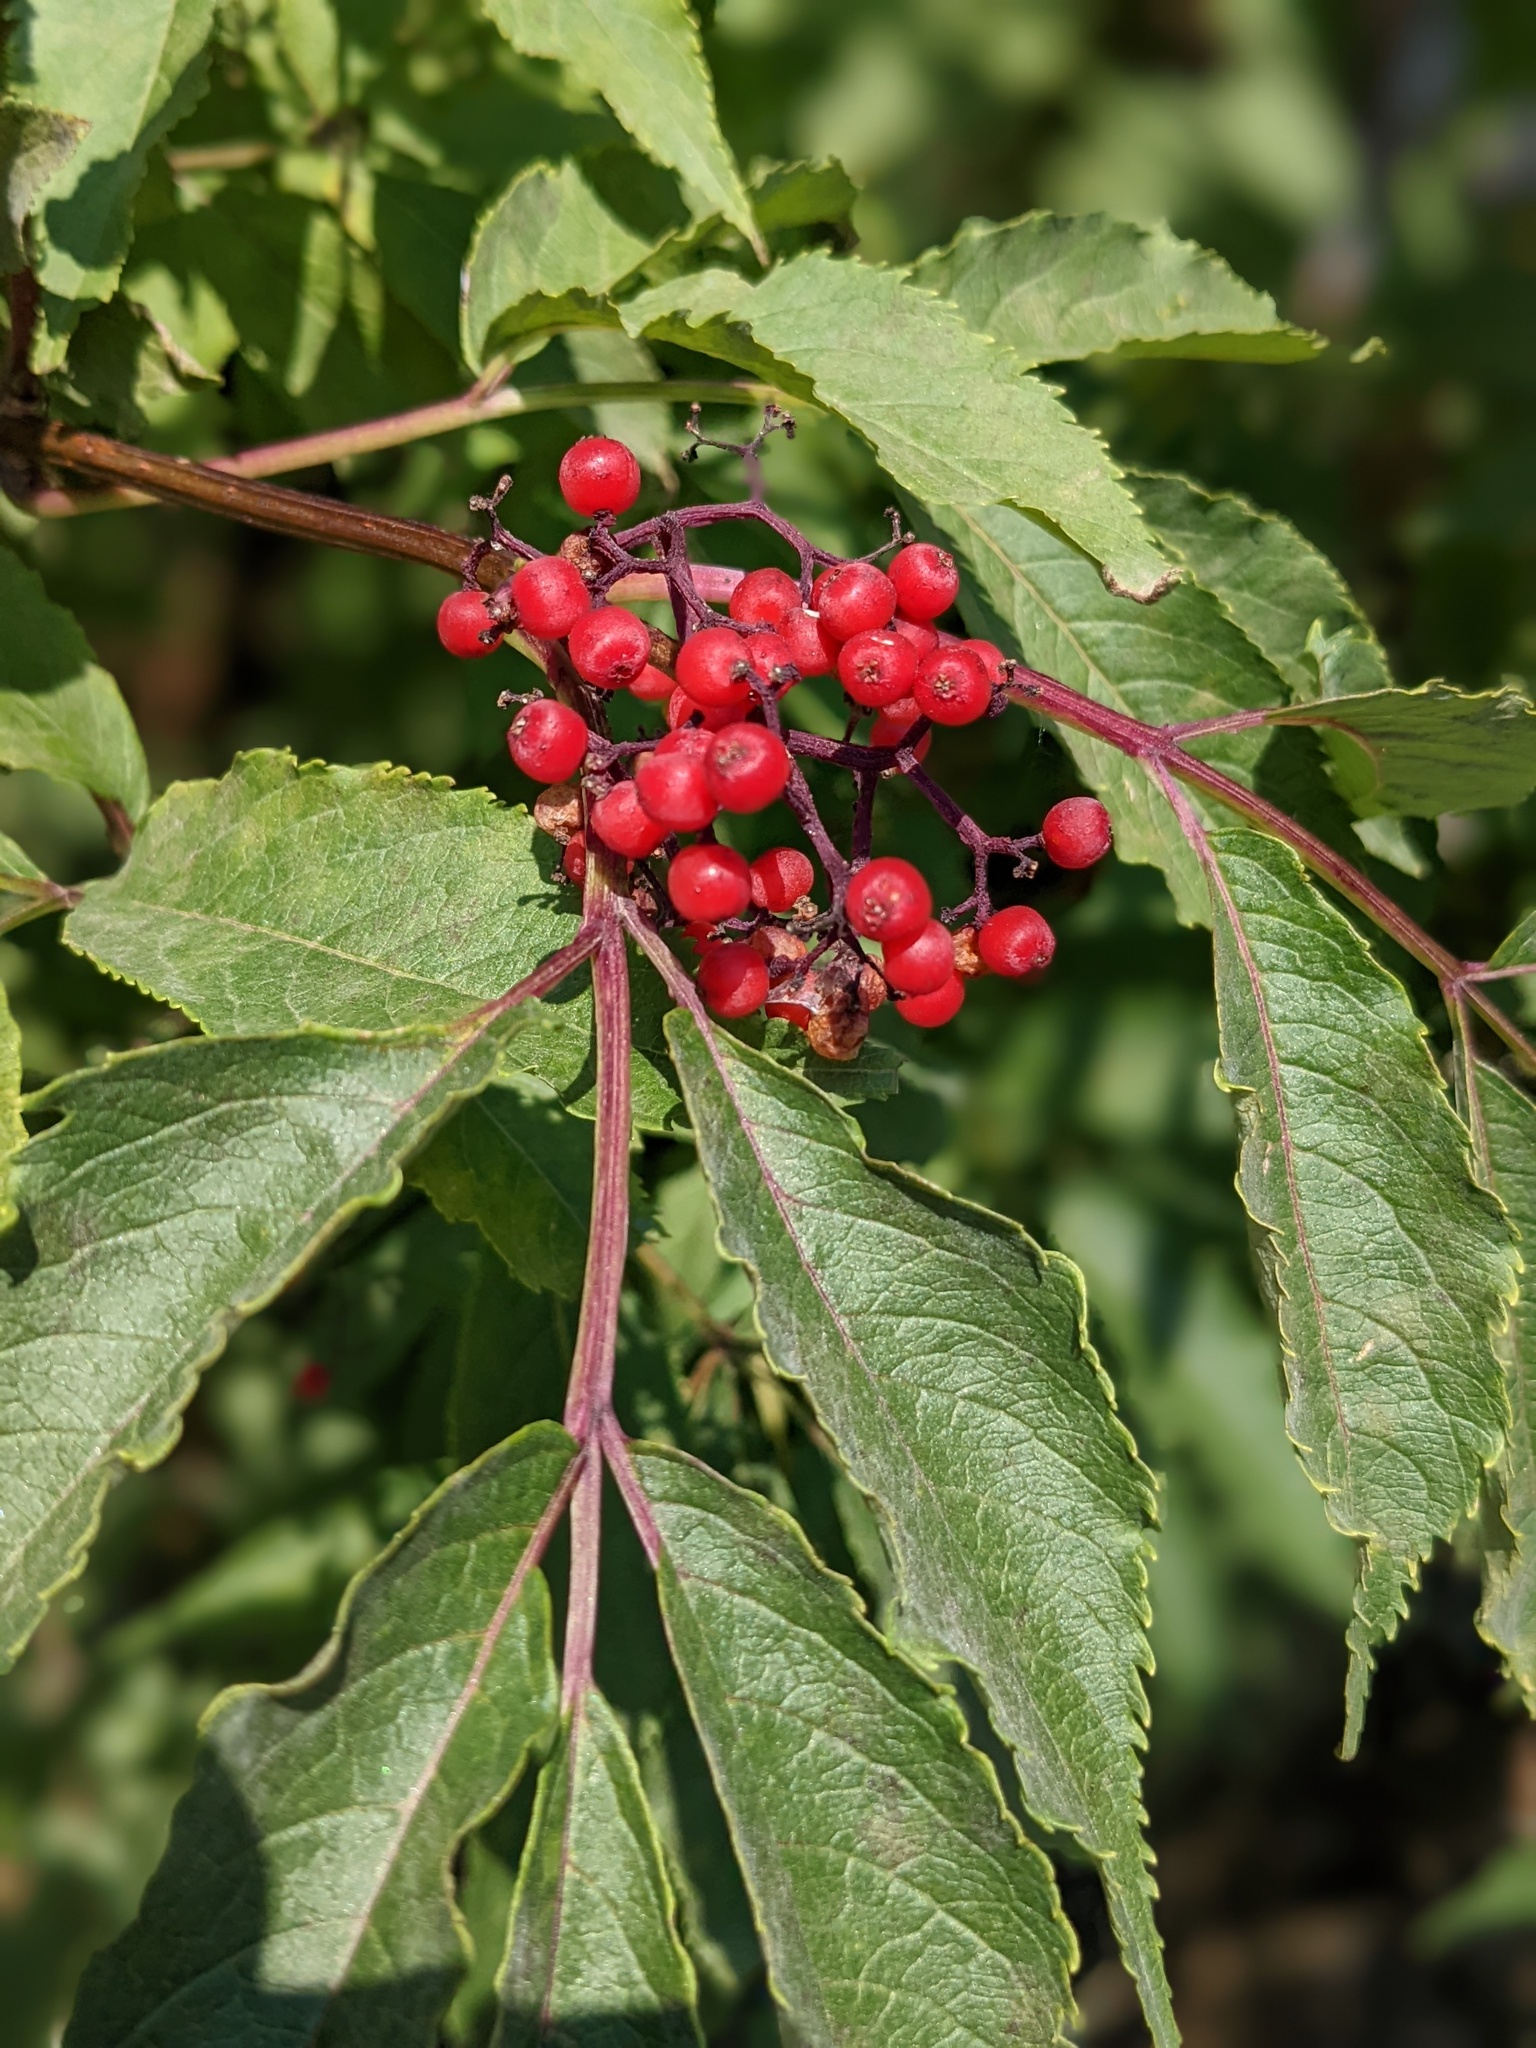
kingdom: Plantae
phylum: Tracheophyta
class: Magnoliopsida
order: Dipsacales
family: Viburnaceae
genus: Sambucus
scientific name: Sambucus racemosa
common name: Red-berried elder
